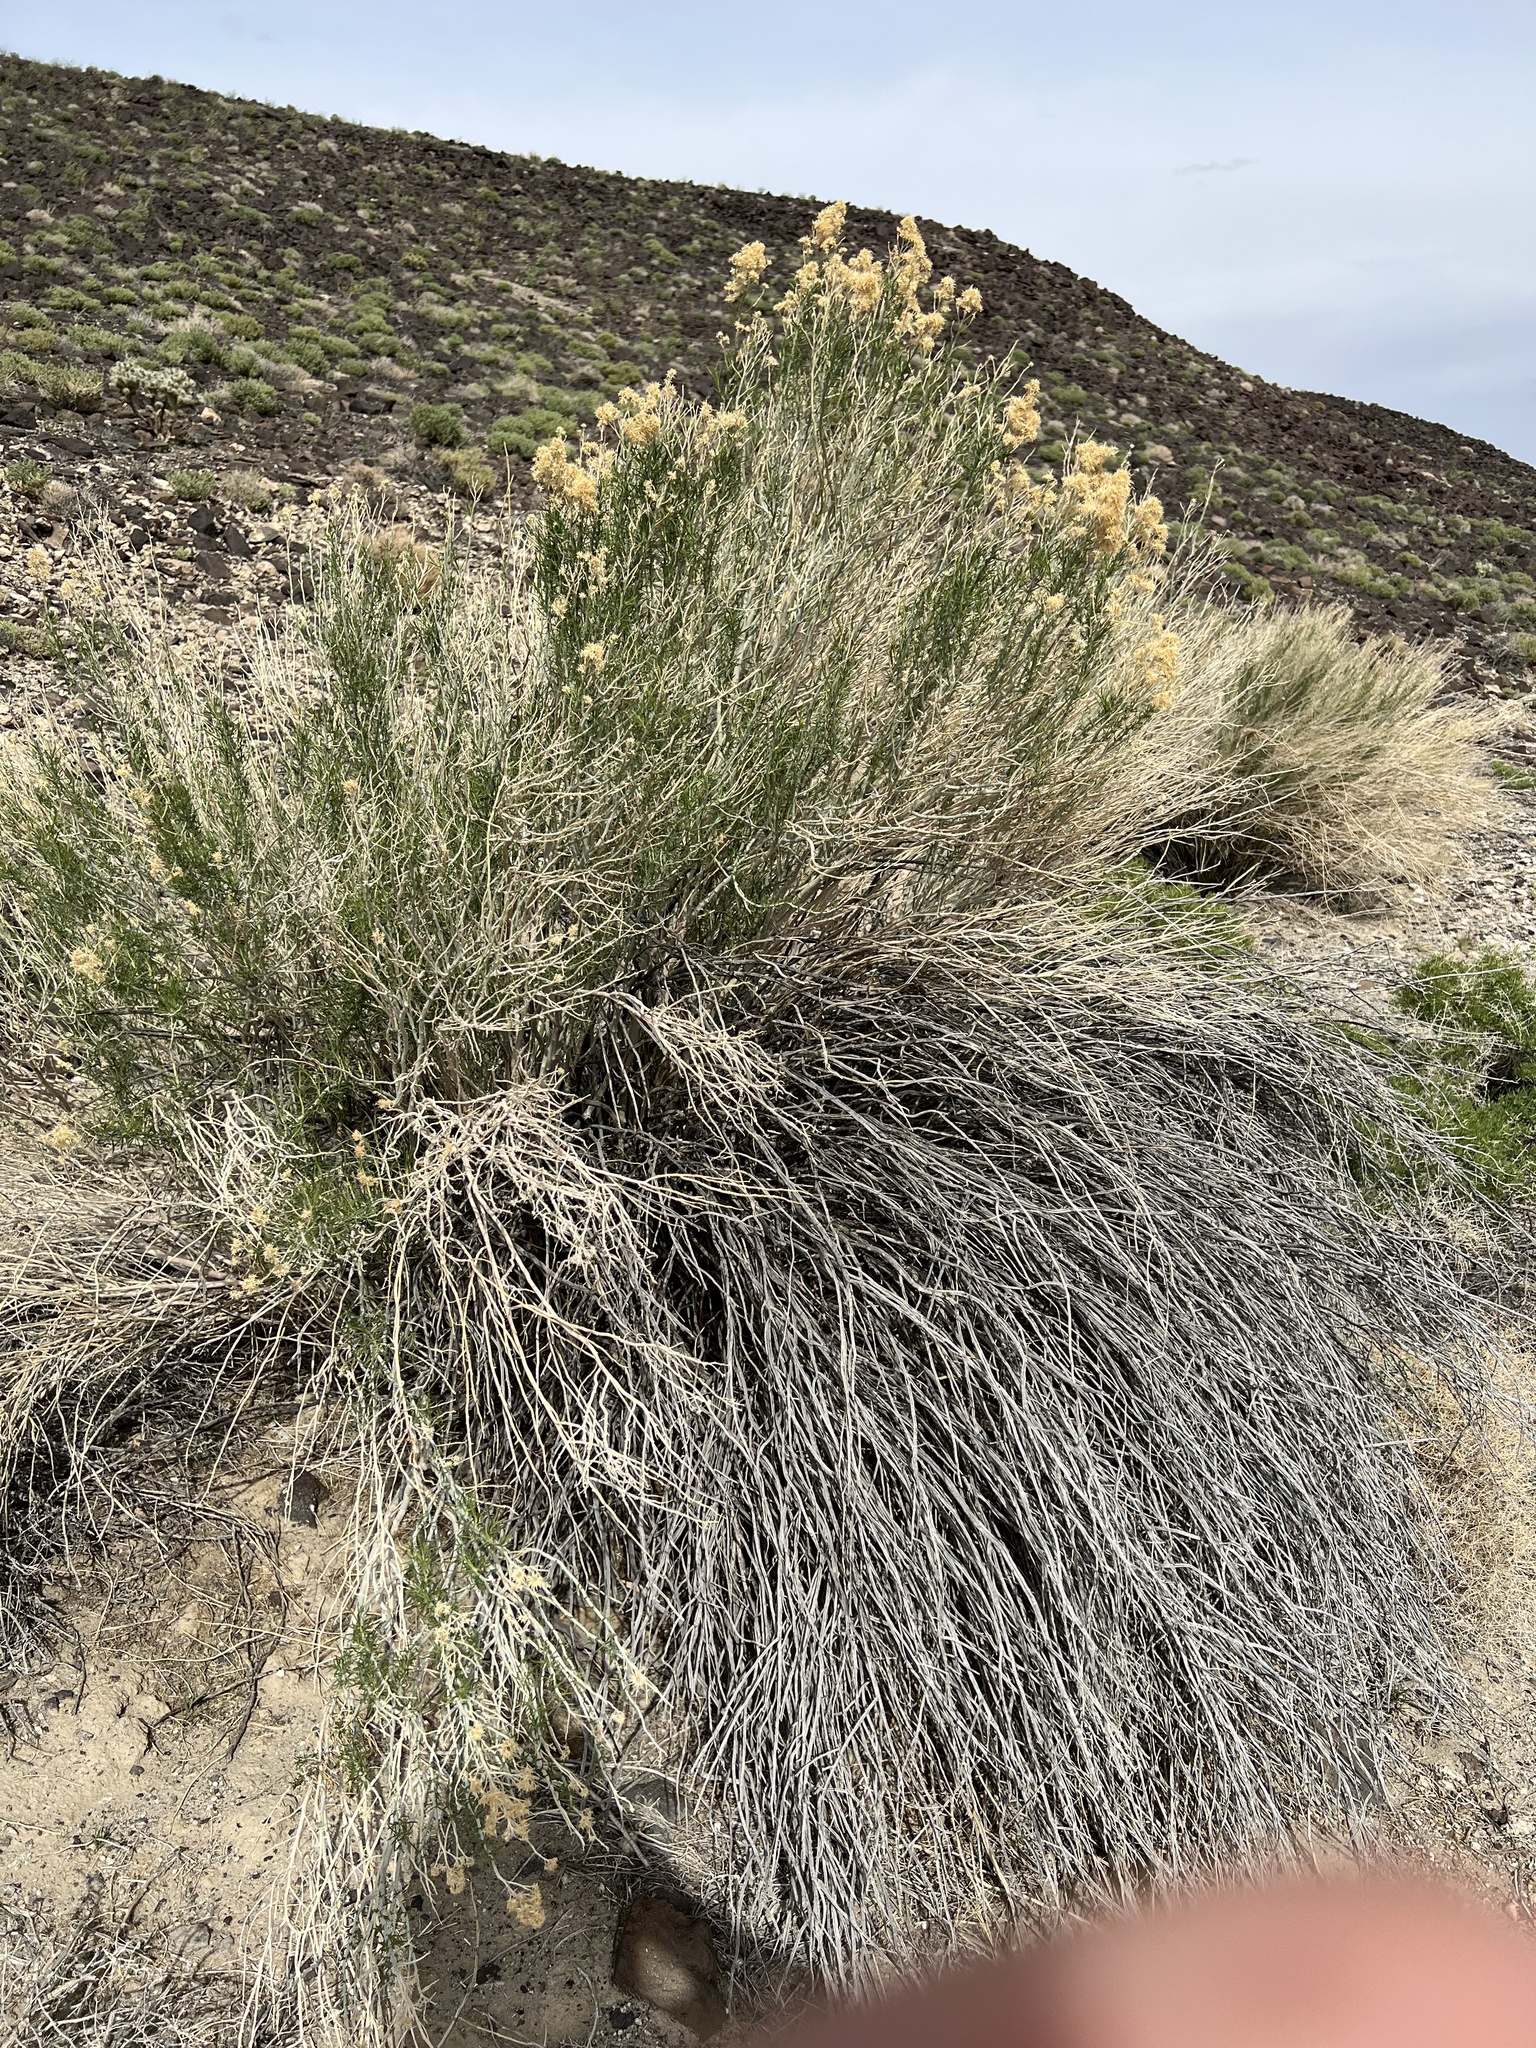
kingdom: Plantae
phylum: Tracheophyta
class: Magnoliopsida
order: Asterales
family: Asteraceae
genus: Ericameria
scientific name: Ericameria nauseosa
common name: Rubber rabbitbrush
